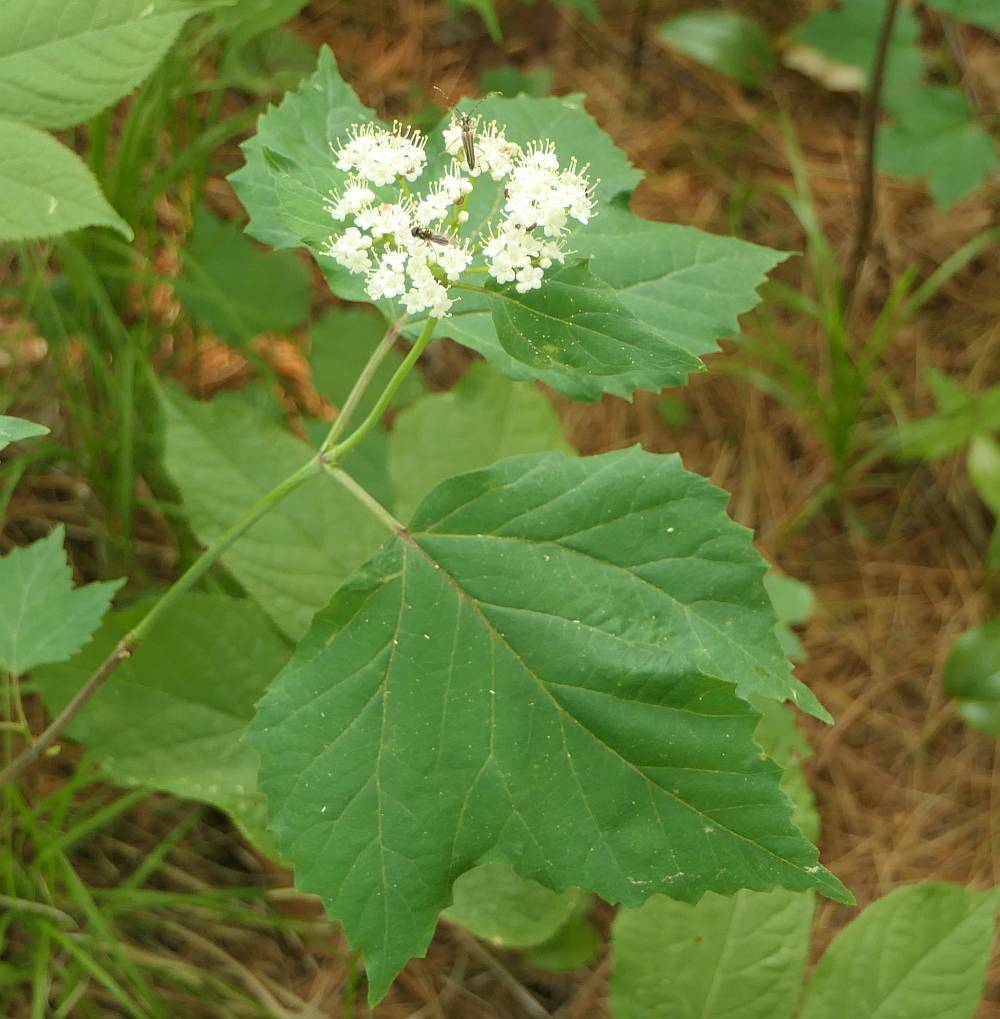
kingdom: Plantae
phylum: Tracheophyta
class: Magnoliopsida
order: Dipsacales
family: Viburnaceae
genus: Viburnum
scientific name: Viburnum acerifolium
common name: Dockmackie
